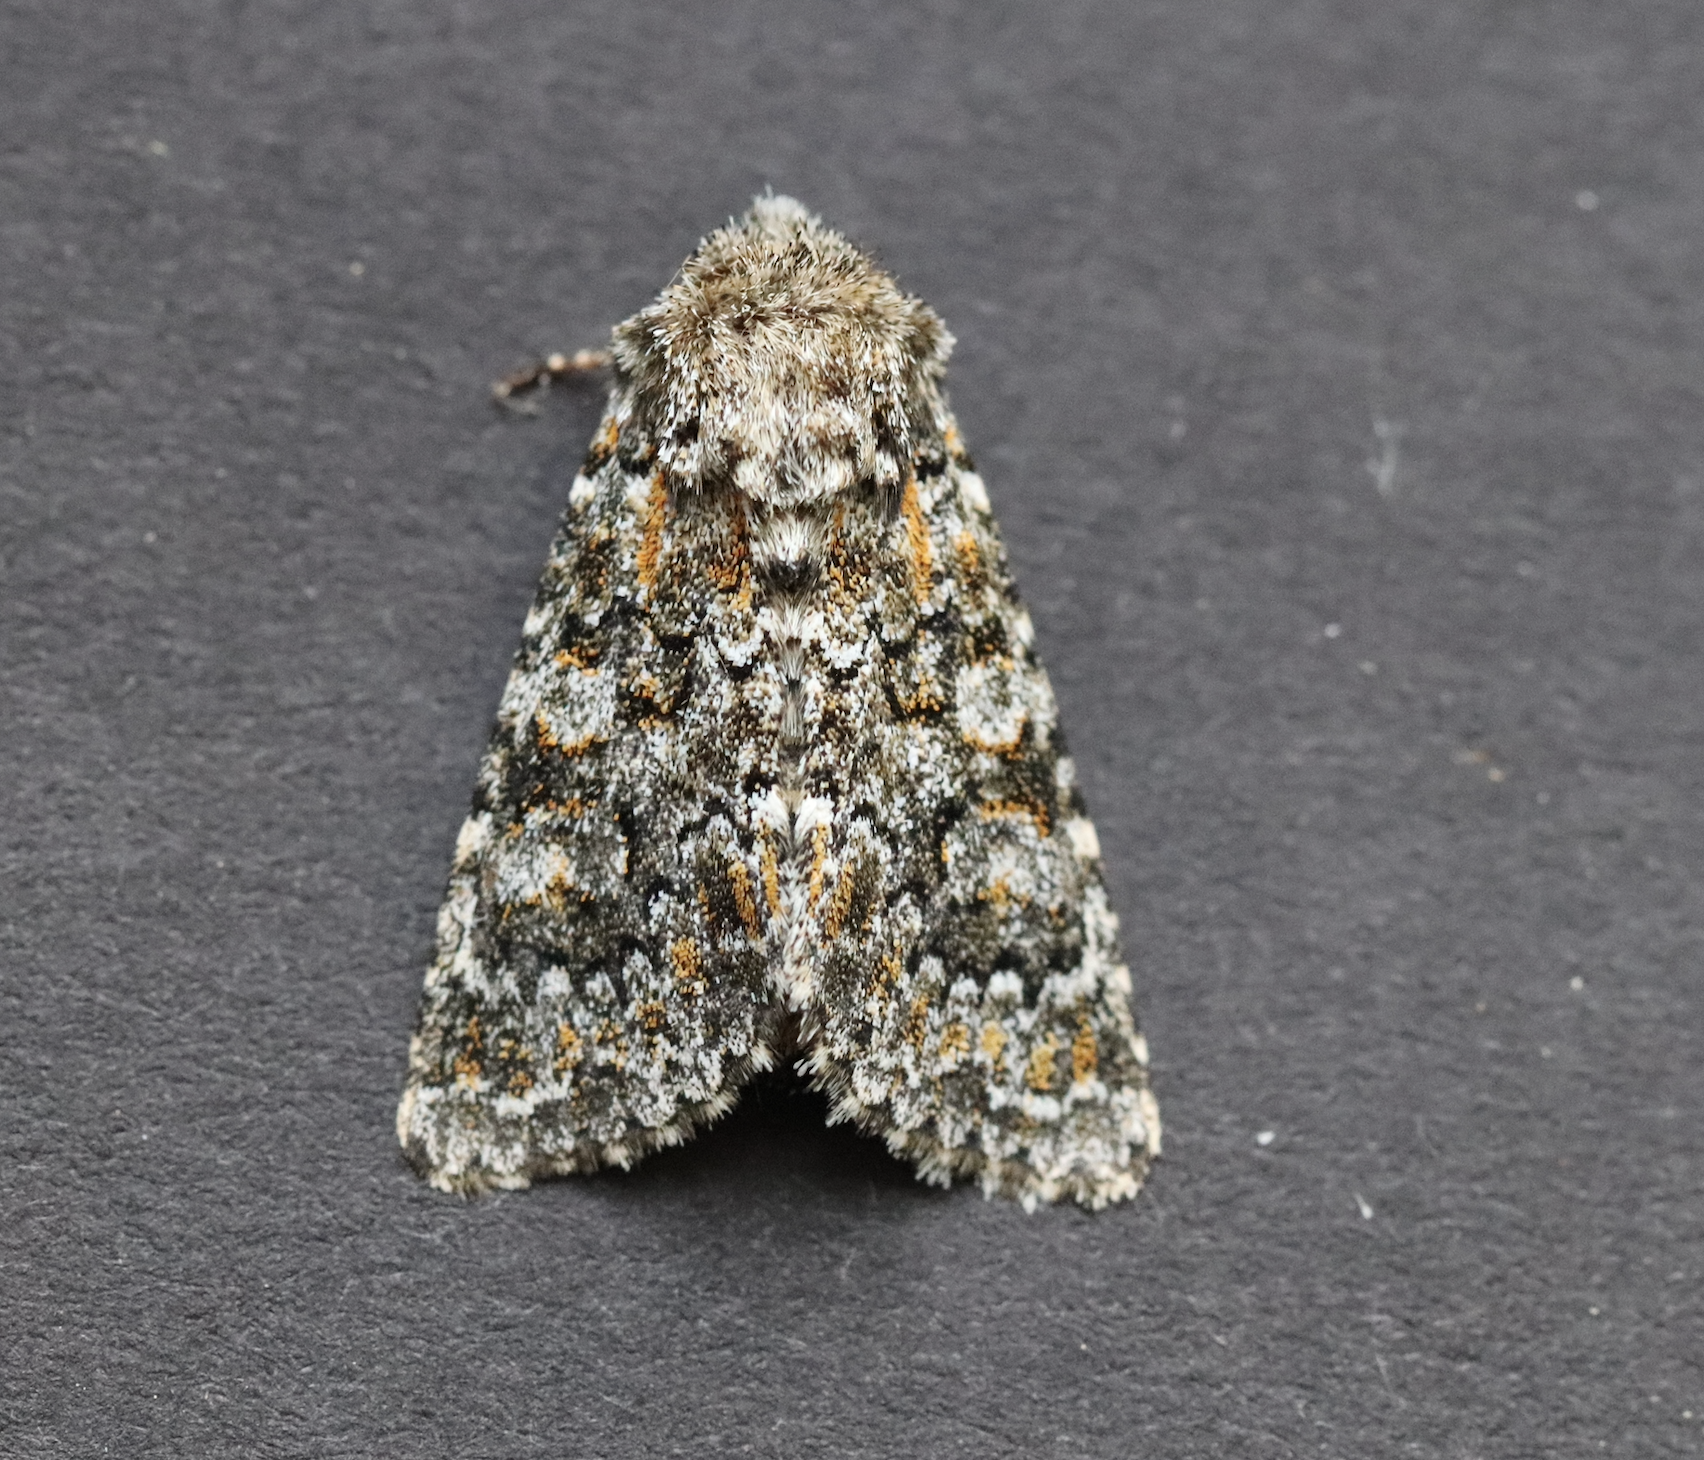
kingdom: Animalia
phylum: Arthropoda
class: Insecta
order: Lepidoptera
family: Noctuidae
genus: Hadena
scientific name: Hadena filograna
